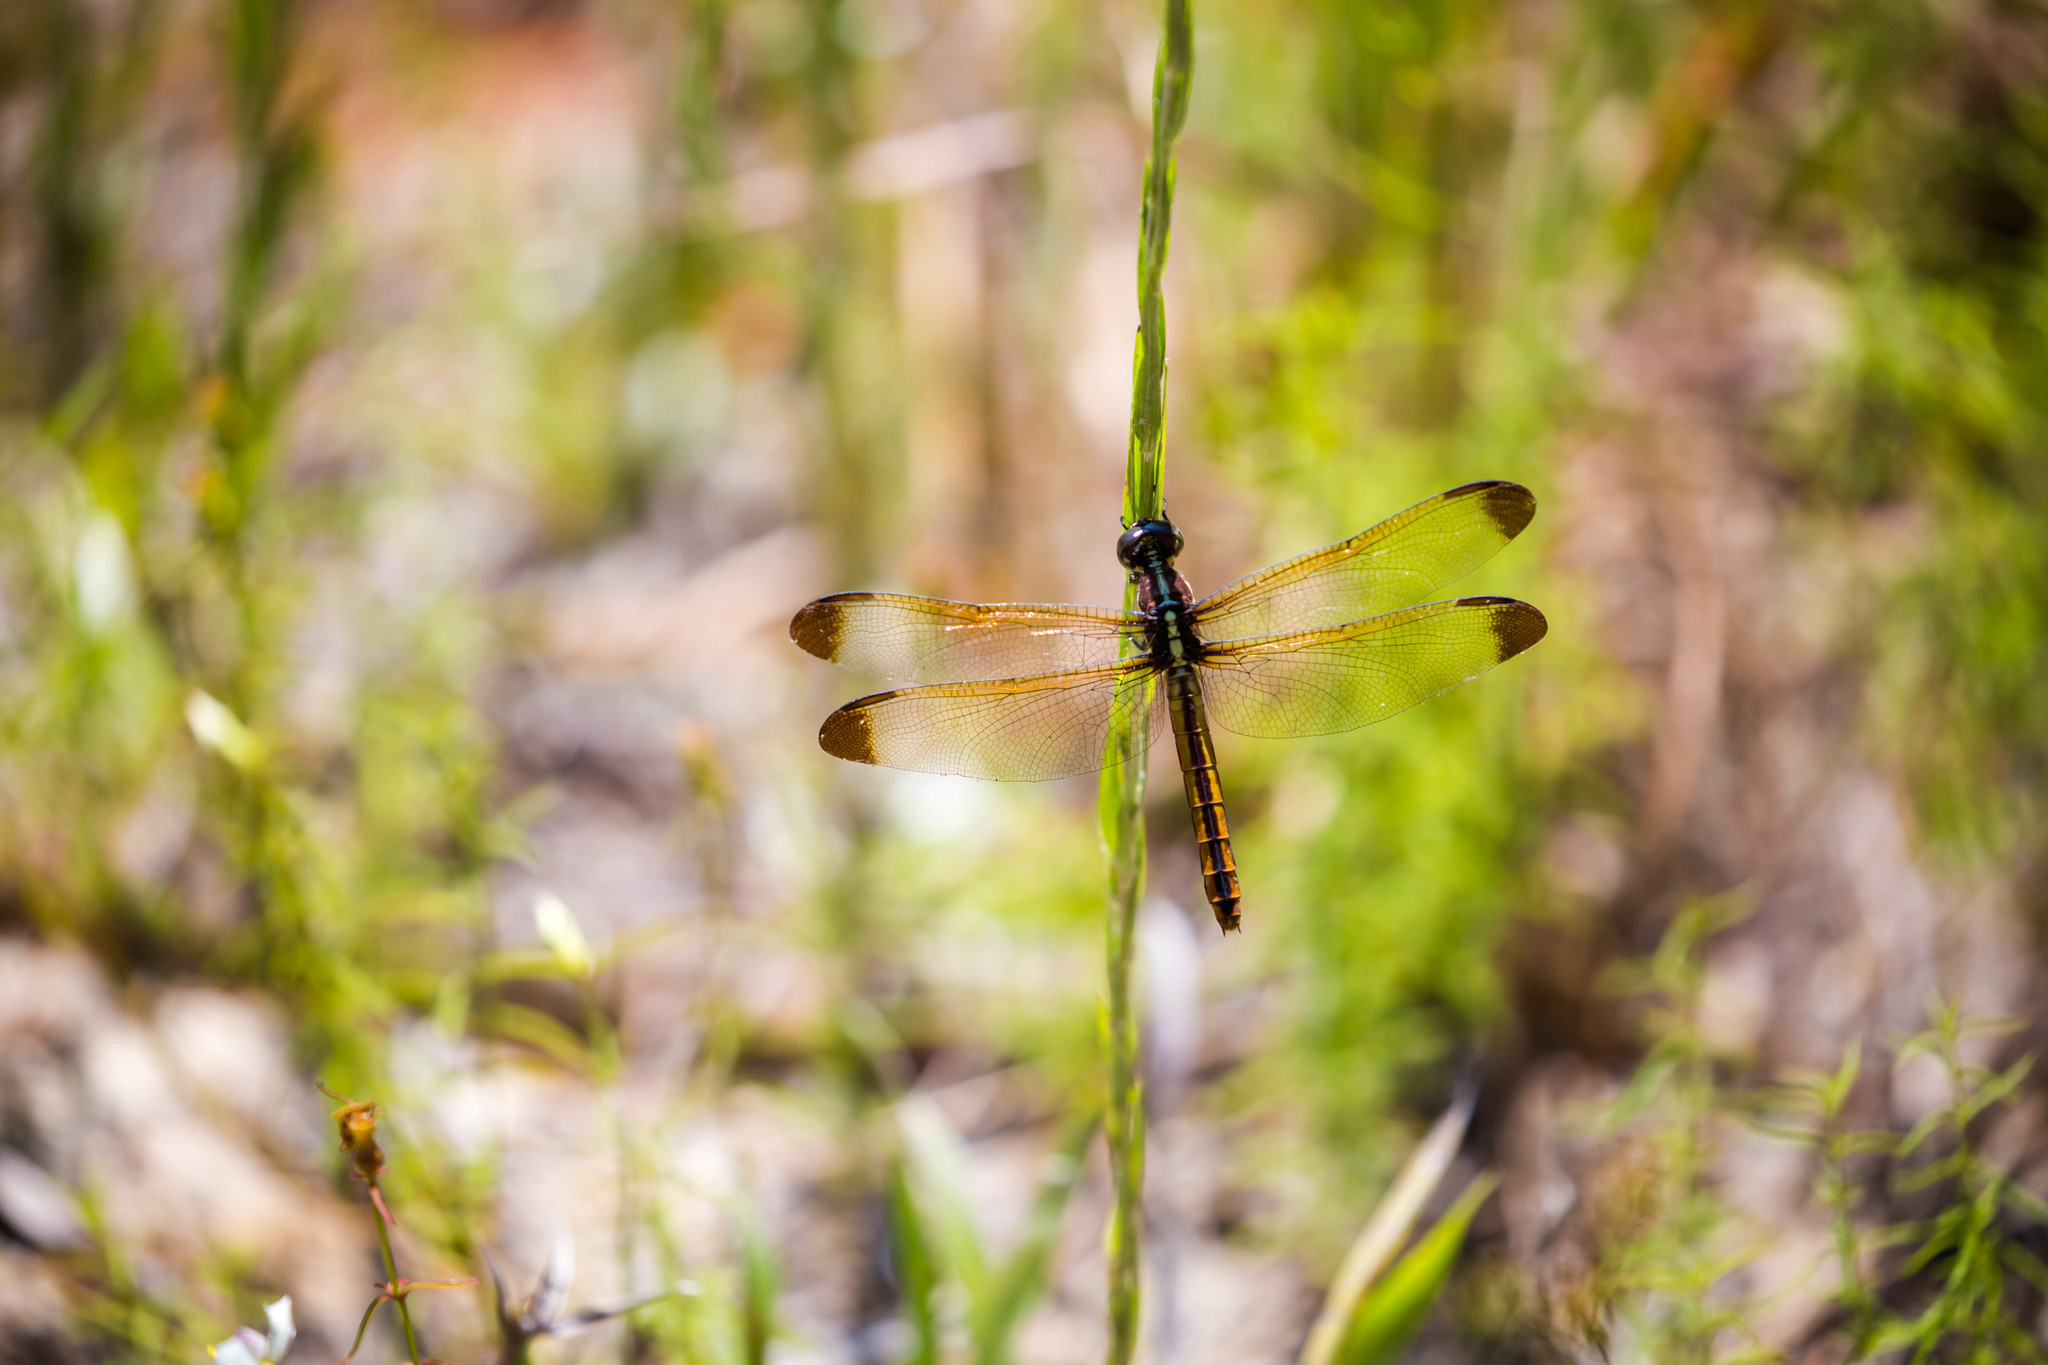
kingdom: Animalia
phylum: Arthropoda
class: Insecta
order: Odonata
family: Libellulidae
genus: Libellula
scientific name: Libellula flavida
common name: Yellow-sided skimmer
